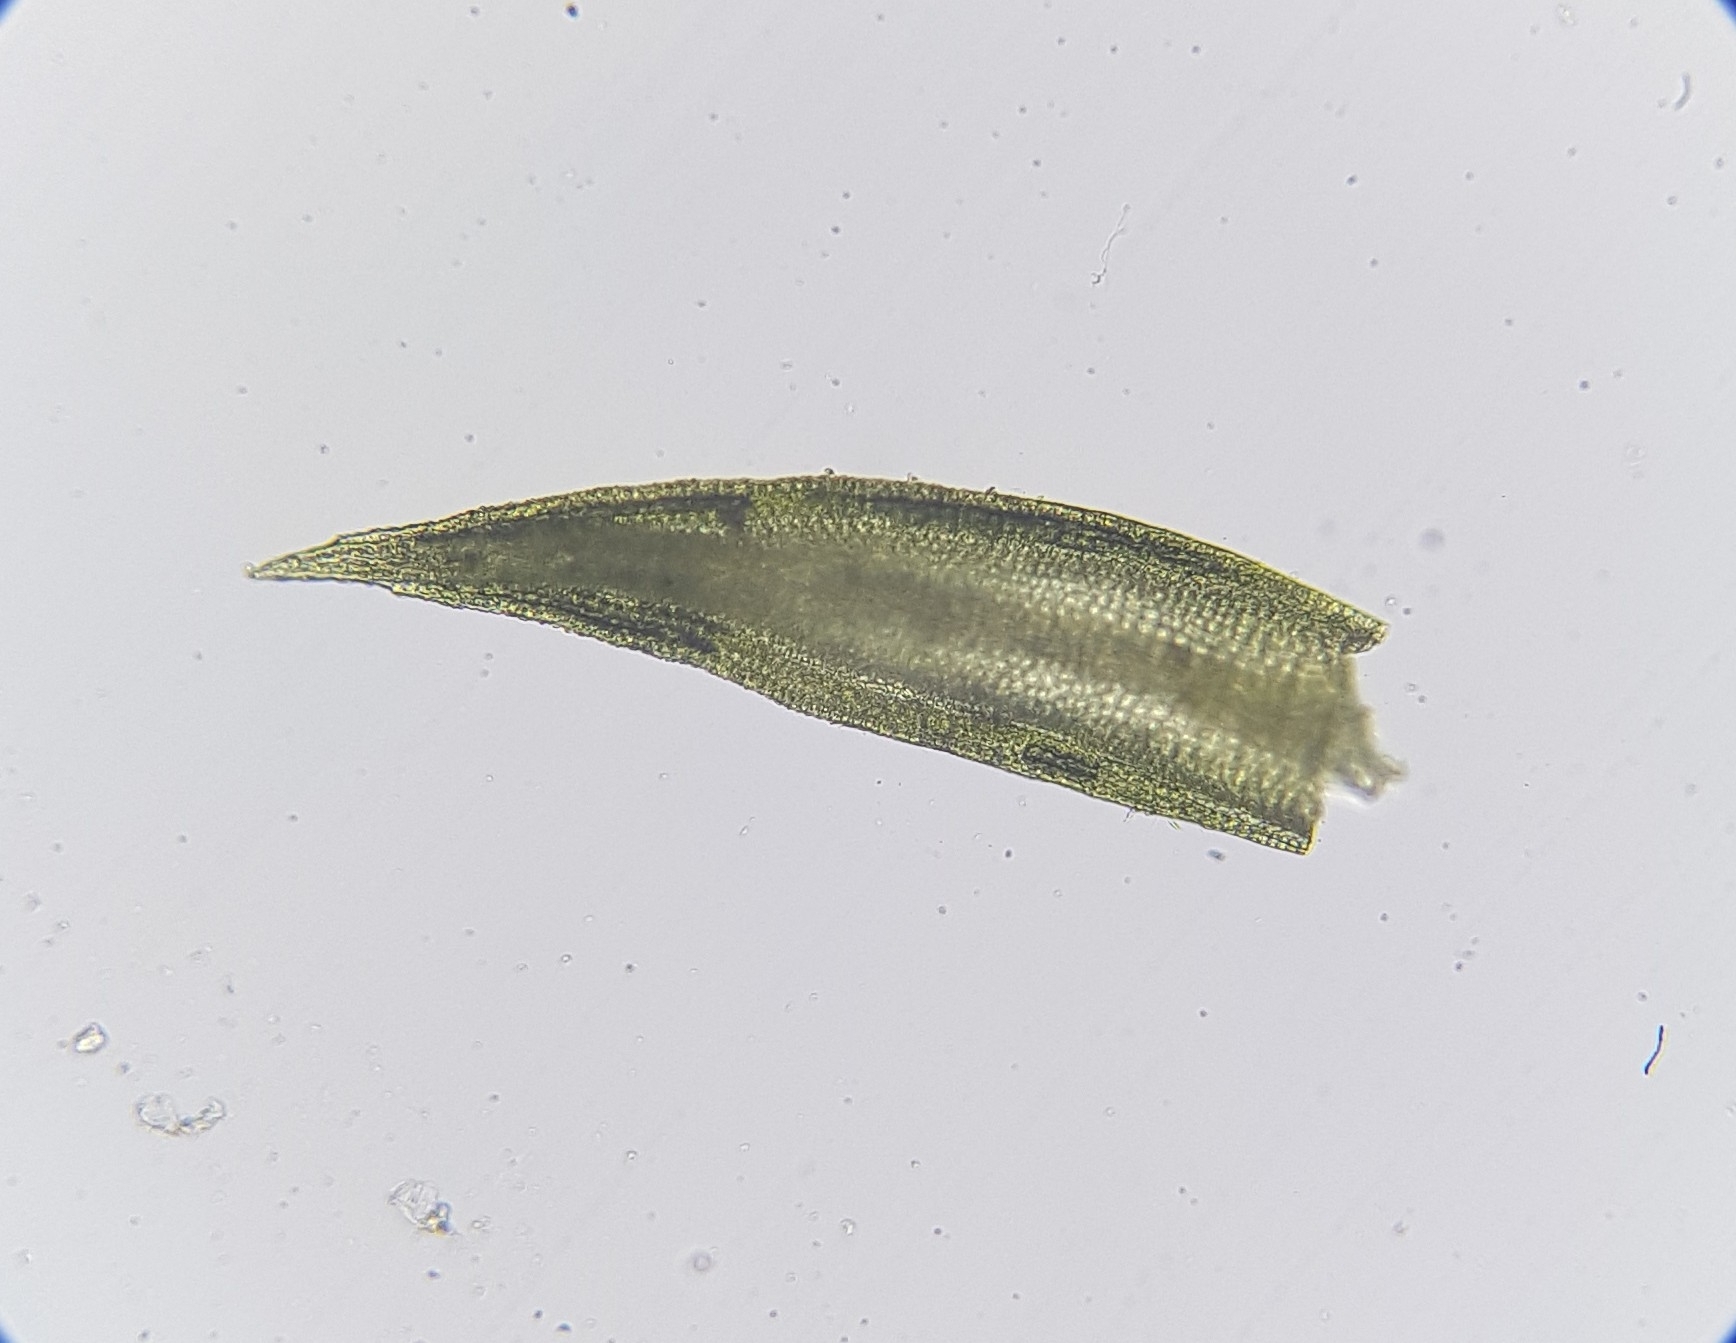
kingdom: Plantae
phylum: Bryophyta
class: Bryopsida
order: Pottiales
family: Pottiaceae
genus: Pseudocrossidium
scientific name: Pseudocrossidium hornschuchianum
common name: Hornschuch's beard-moss
